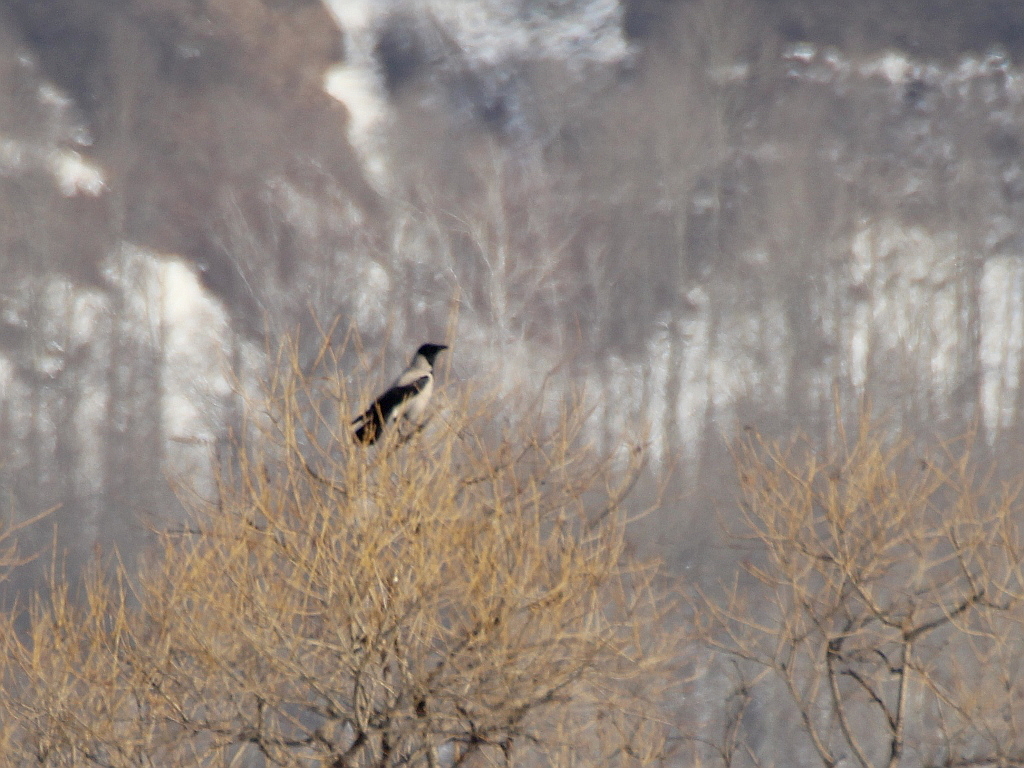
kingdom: Animalia
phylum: Chordata
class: Aves
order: Passeriformes
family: Corvidae
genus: Corvus
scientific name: Corvus cornix
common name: Hooded crow
